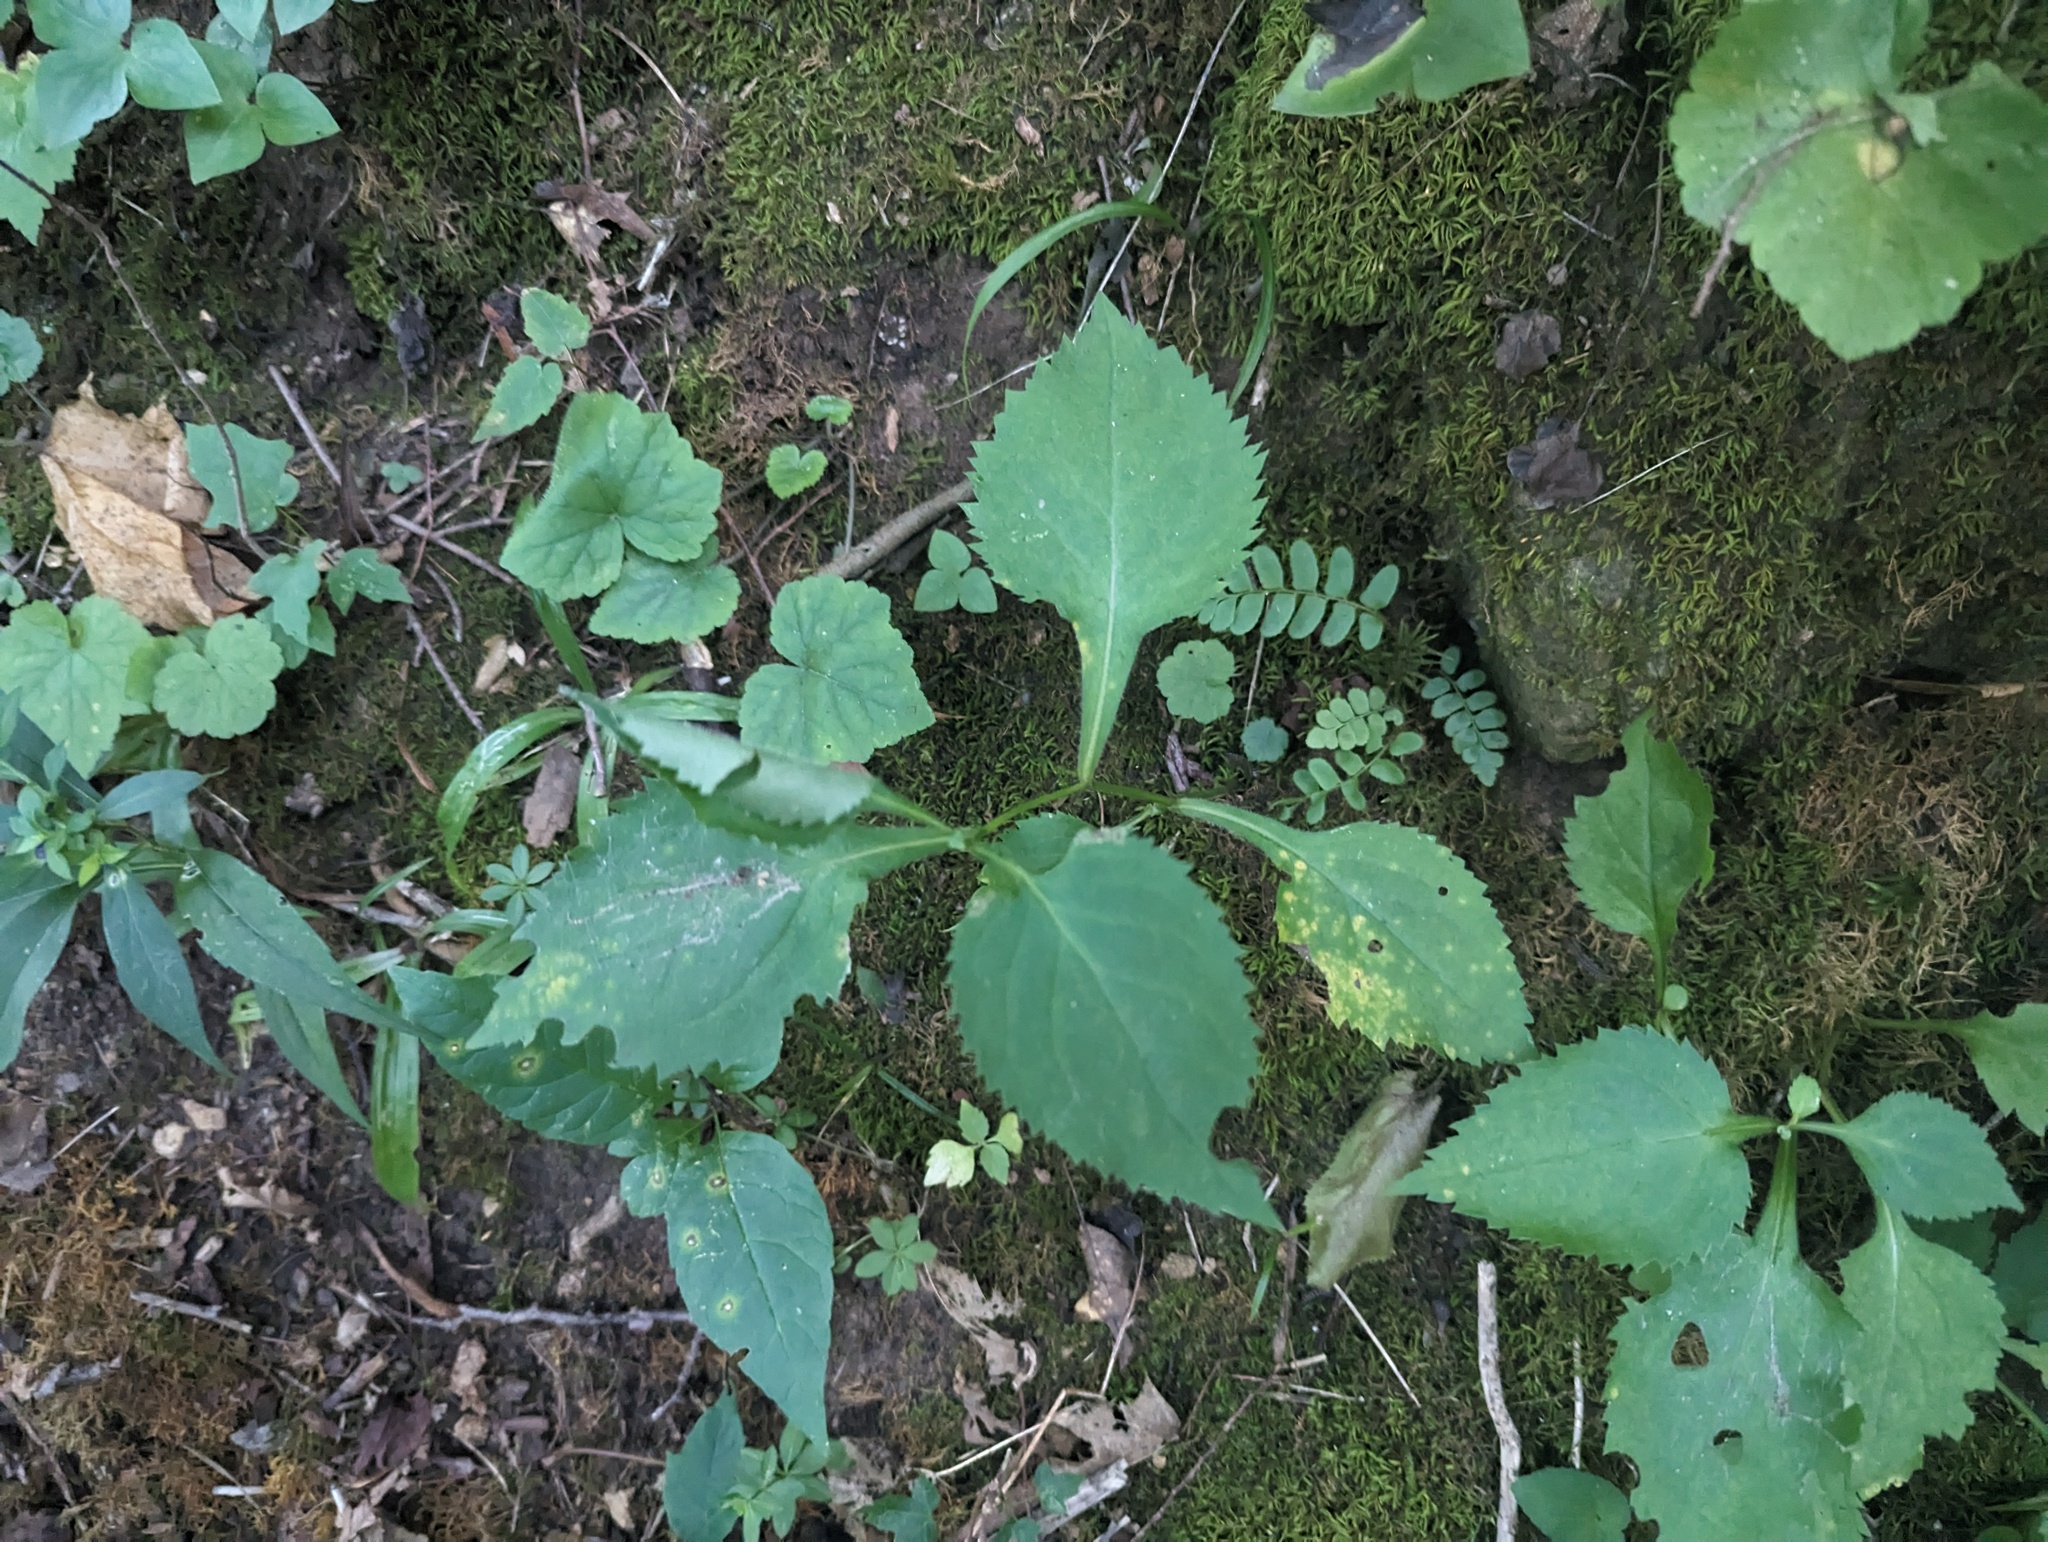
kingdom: Plantae
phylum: Tracheophyta
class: Magnoliopsida
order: Asterales
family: Asteraceae
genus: Solidago
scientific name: Solidago flexicaulis
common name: Zig-zag goldenrod
